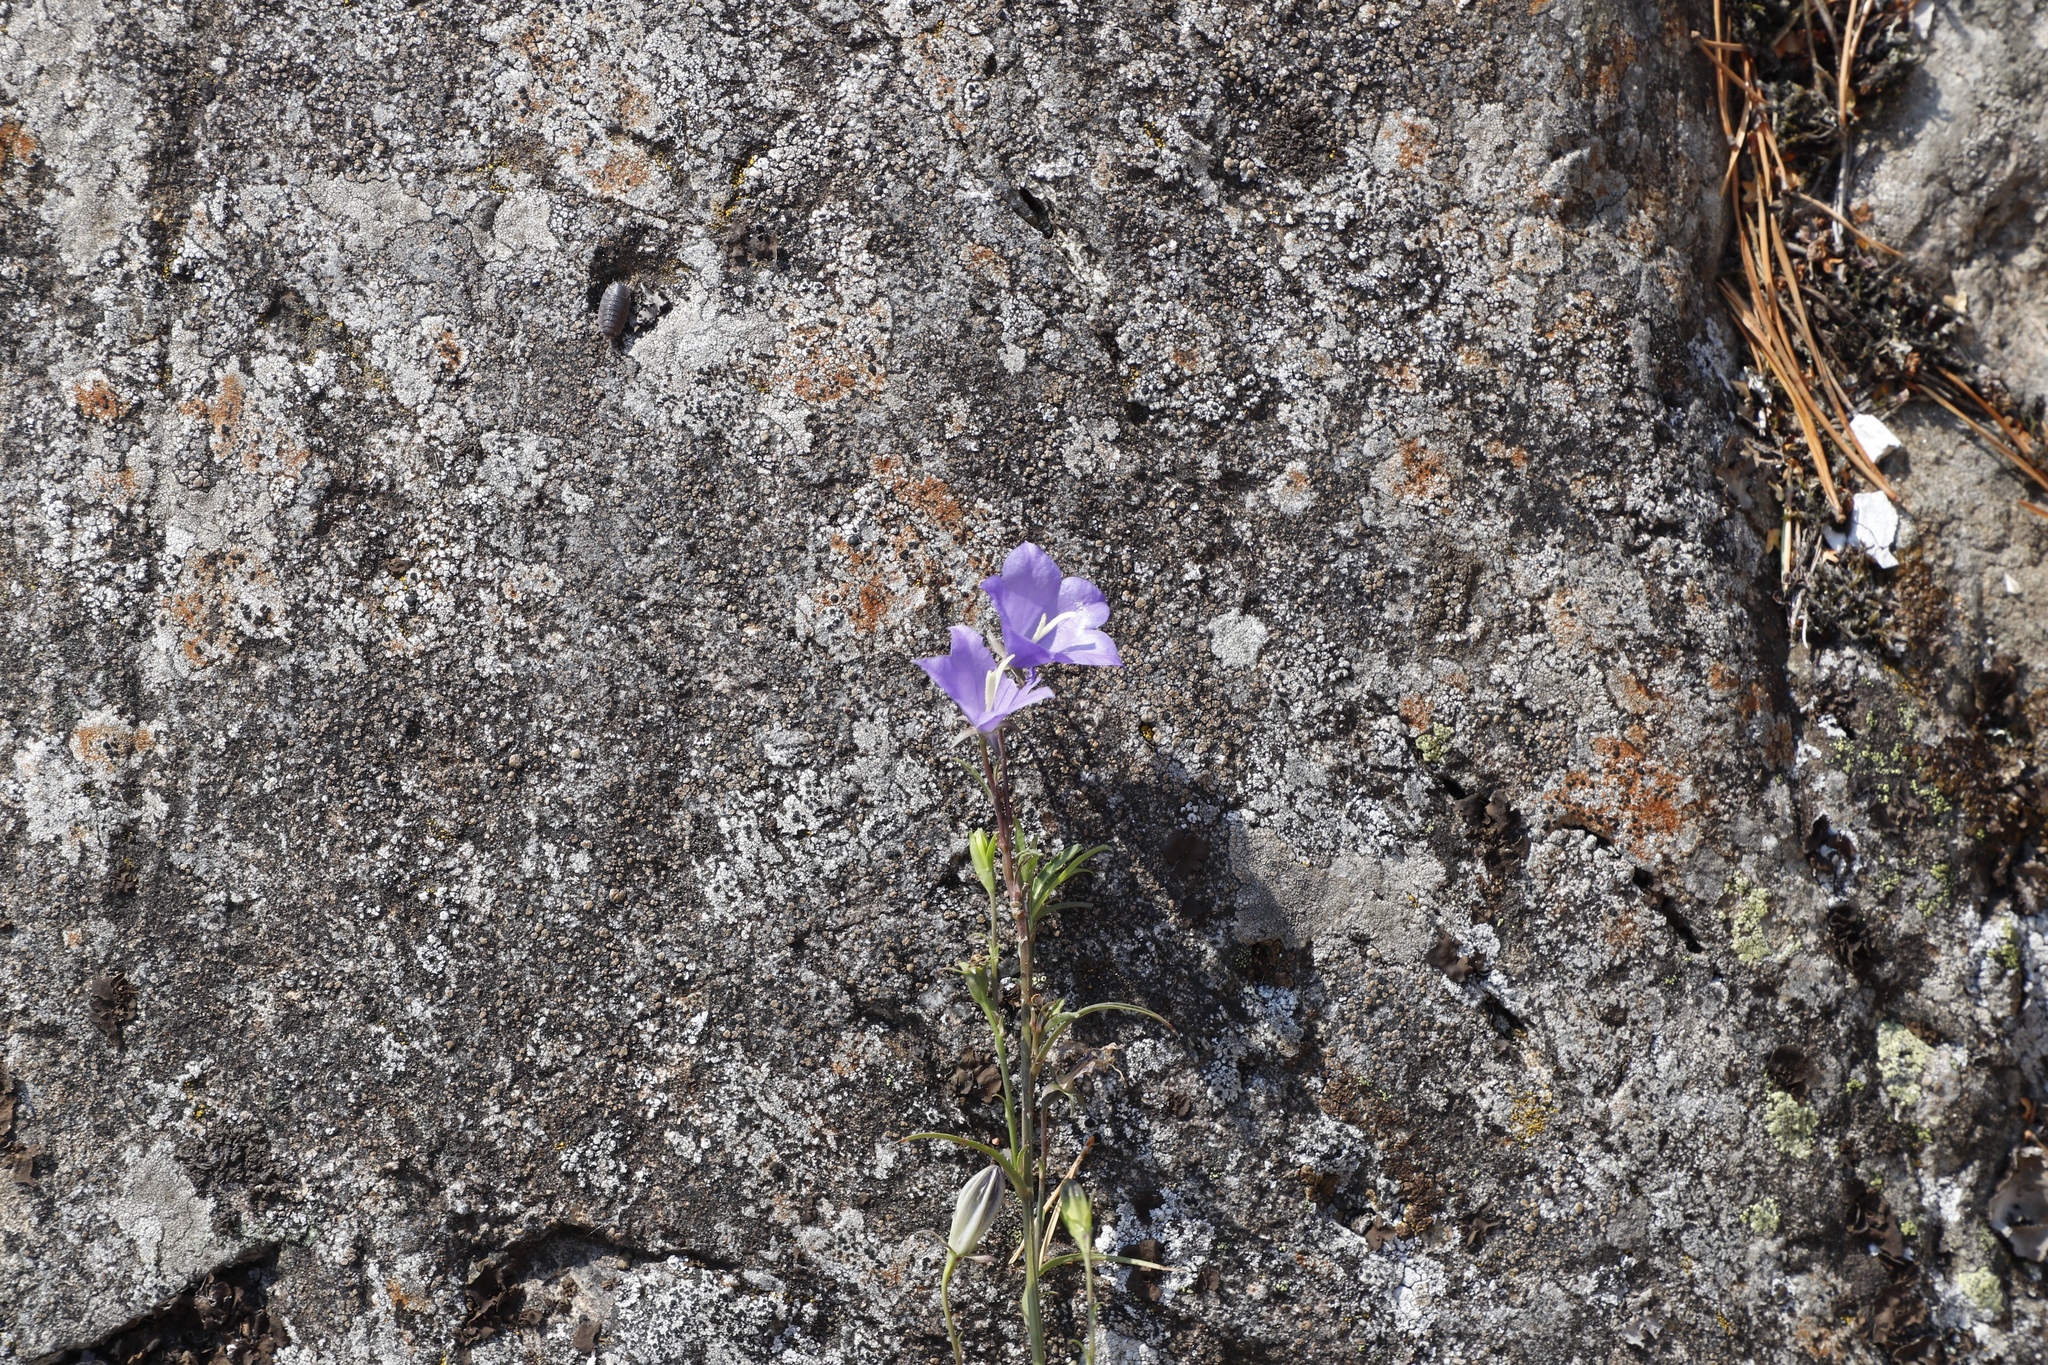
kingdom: Plantae
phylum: Tracheophyta
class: Magnoliopsida
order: Asterales
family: Campanulaceae
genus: Campanula
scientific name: Campanula persicifolia
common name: Peach-leaved bellflower
